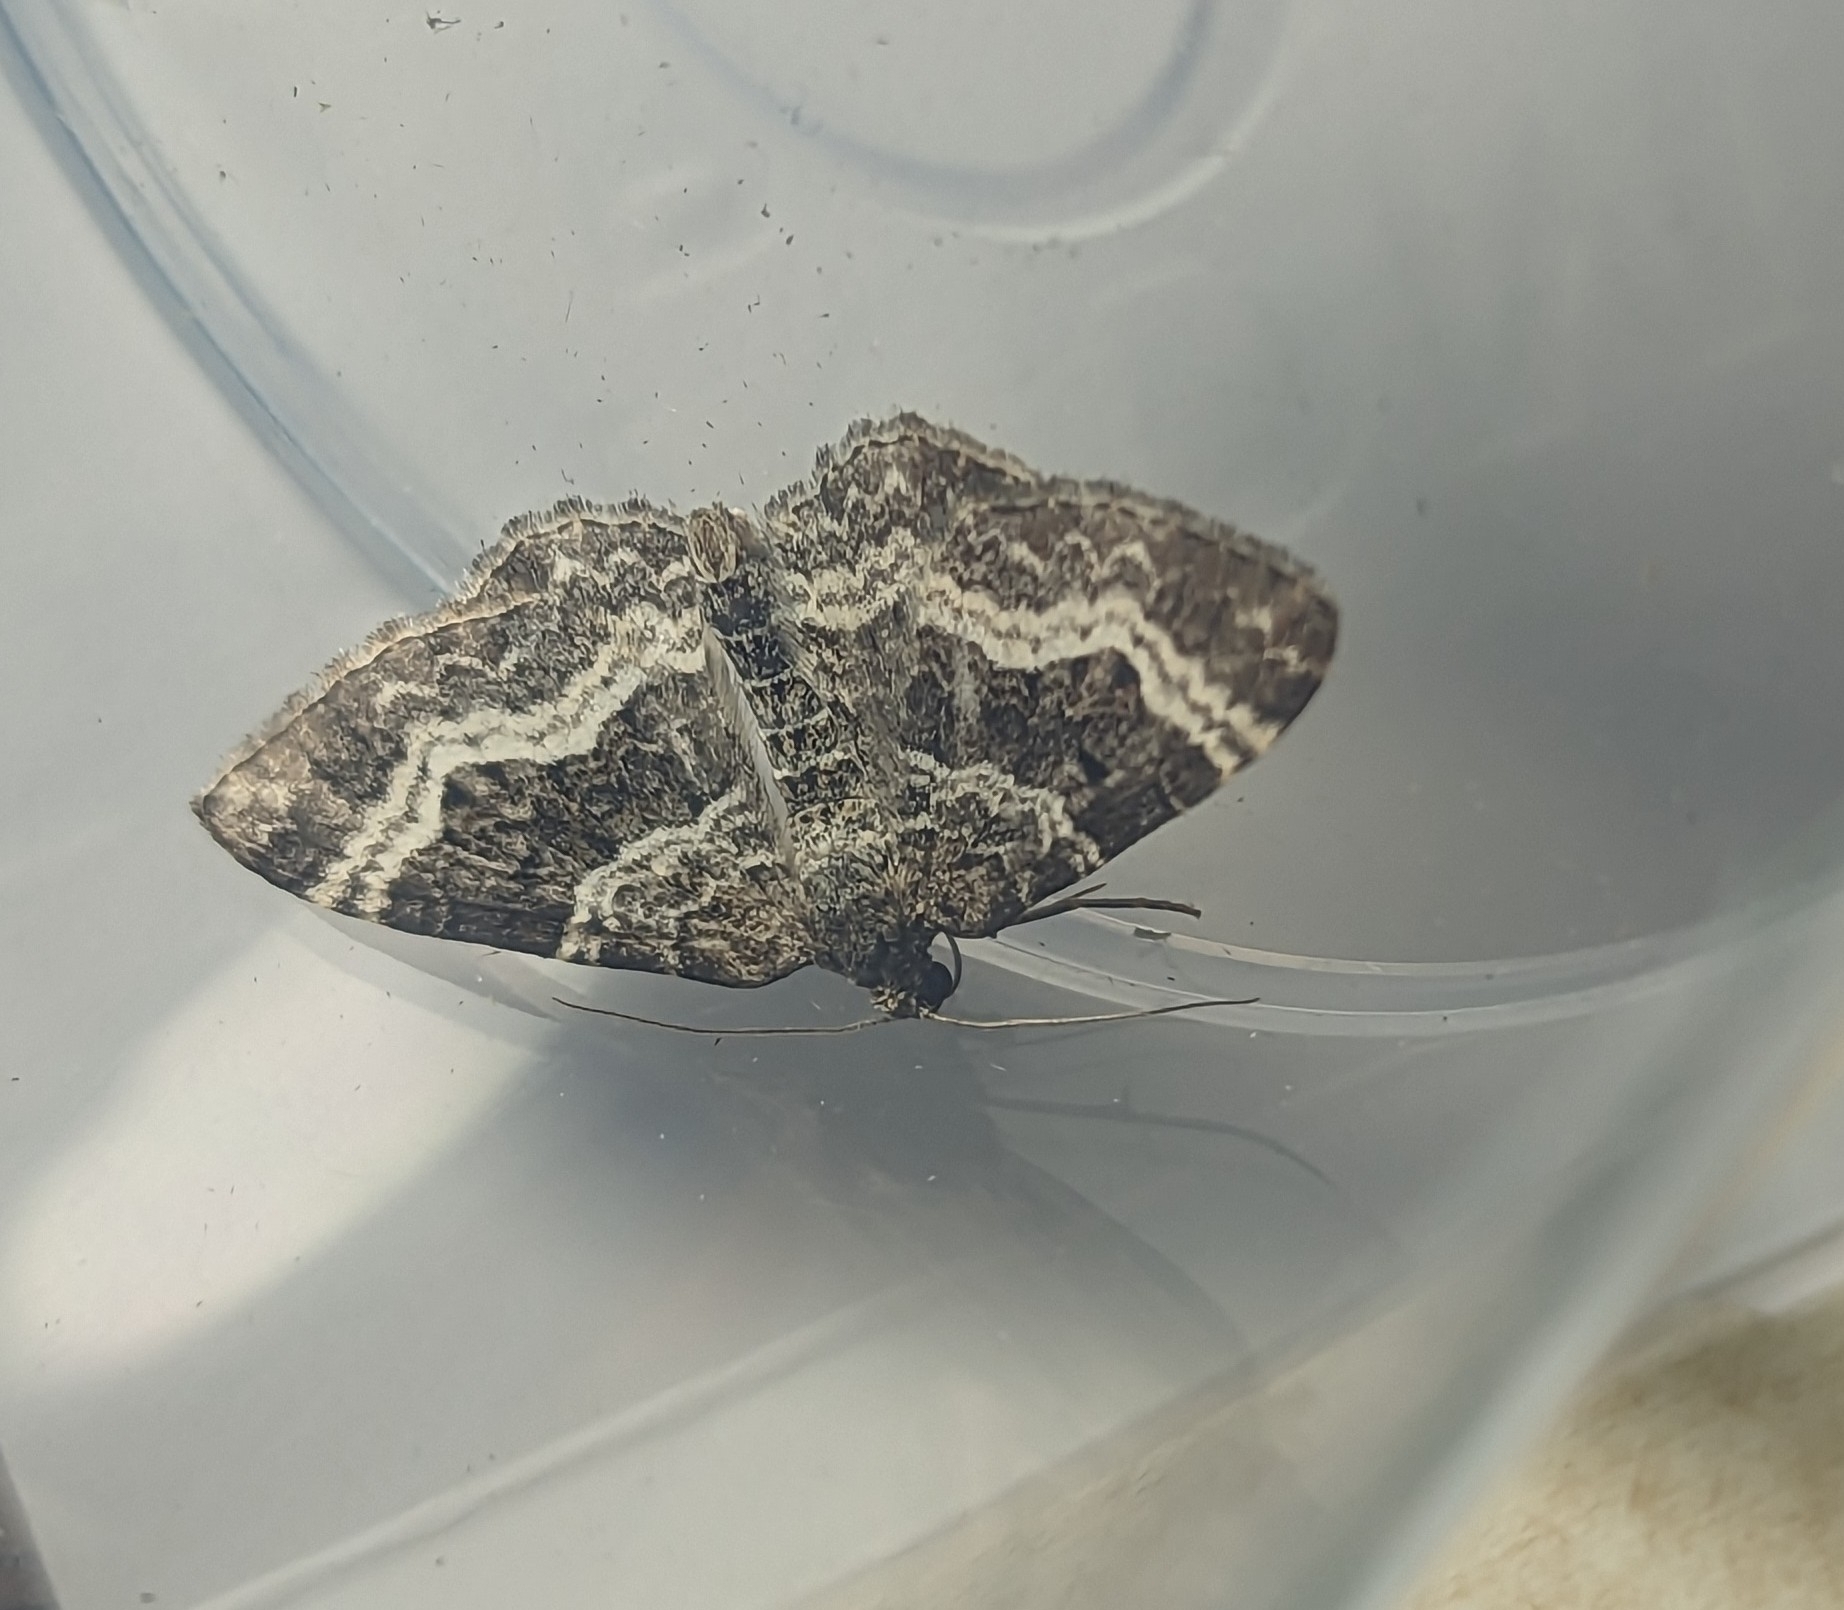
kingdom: Animalia
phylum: Arthropoda
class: Insecta
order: Lepidoptera
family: Geometridae
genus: Epirrhoe
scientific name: Epirrhoe alternata
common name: Common carpet
